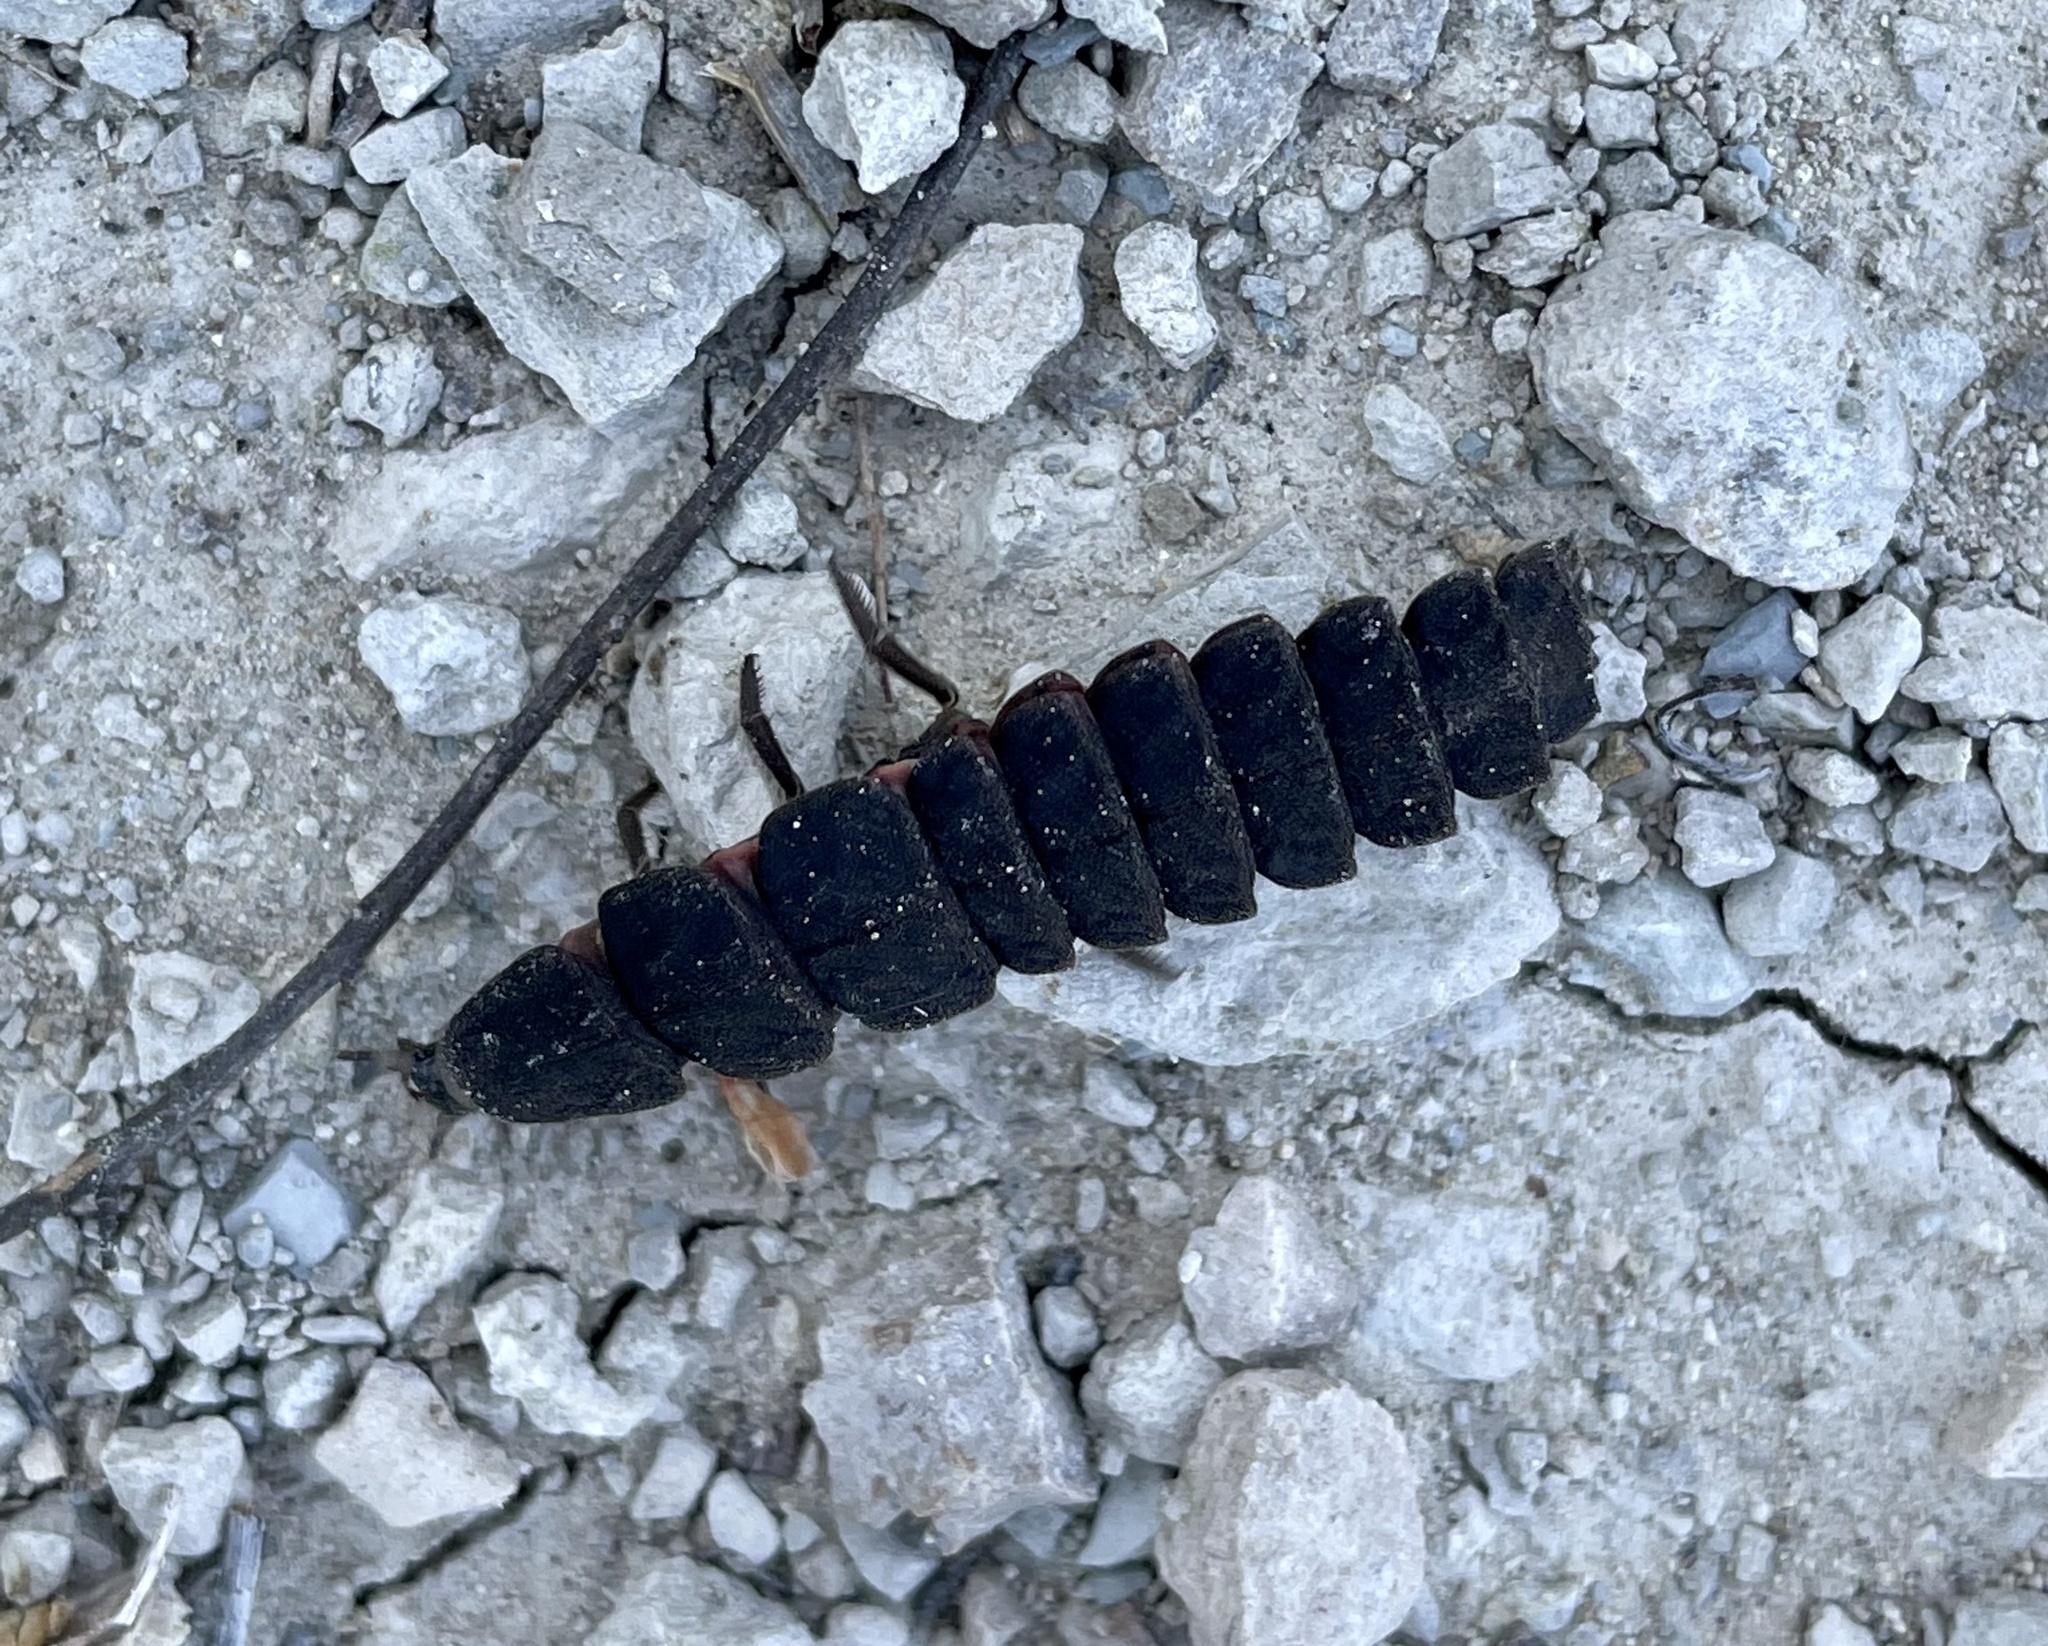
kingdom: Animalia
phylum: Arthropoda
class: Insecta
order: Coleoptera
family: Lampyridae
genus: Nyctophila
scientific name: Nyctophila reichii
